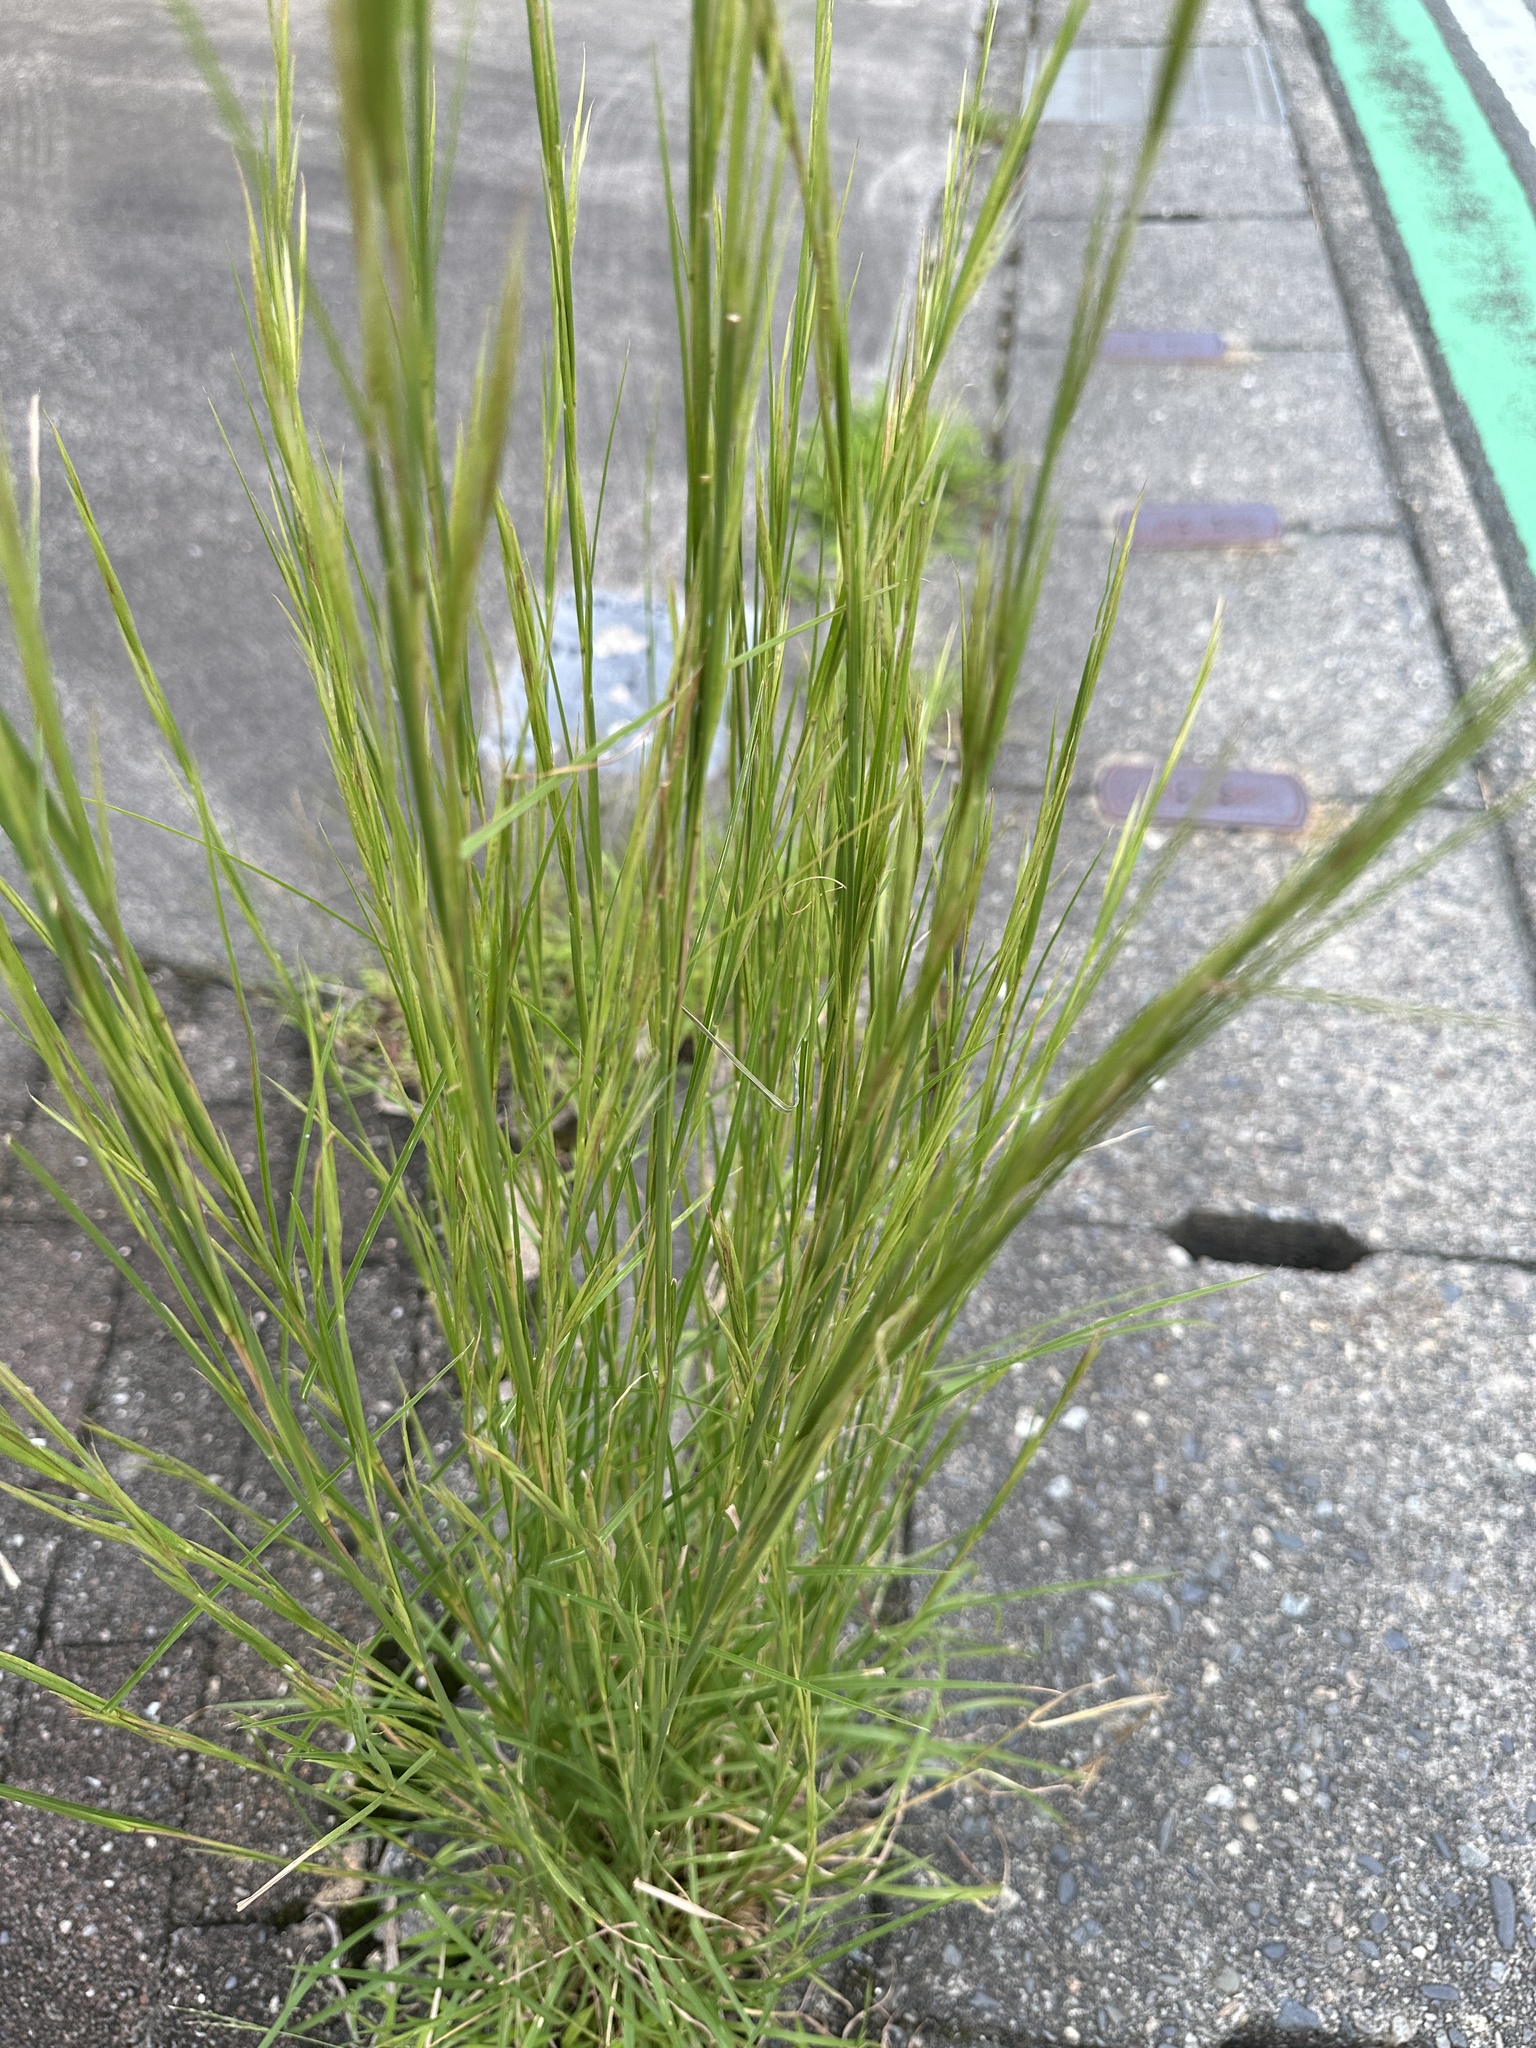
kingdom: Plantae
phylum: Tracheophyta
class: Liliopsida
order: Poales
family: Poaceae
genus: Andropogon
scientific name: Andropogon virginicus
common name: Broomsedge bluestem
